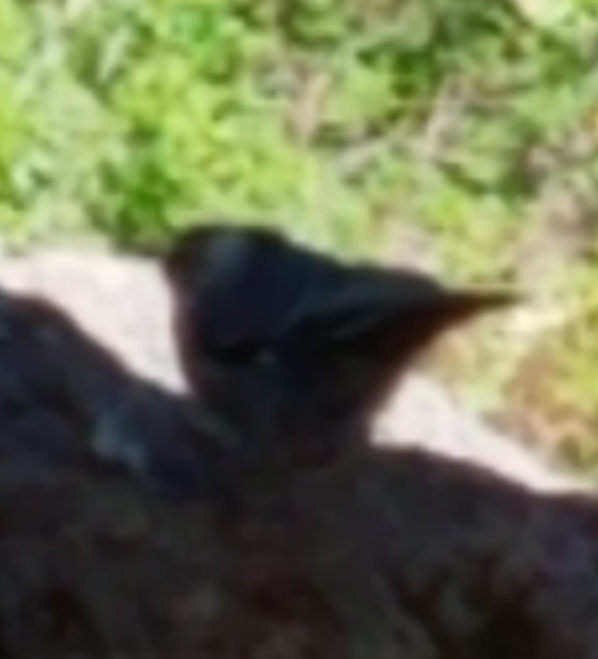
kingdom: Animalia
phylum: Chordata
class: Aves
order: Passeriformes
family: Sittidae
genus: Sitta
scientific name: Sitta carolinensis
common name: White-breasted nuthatch
